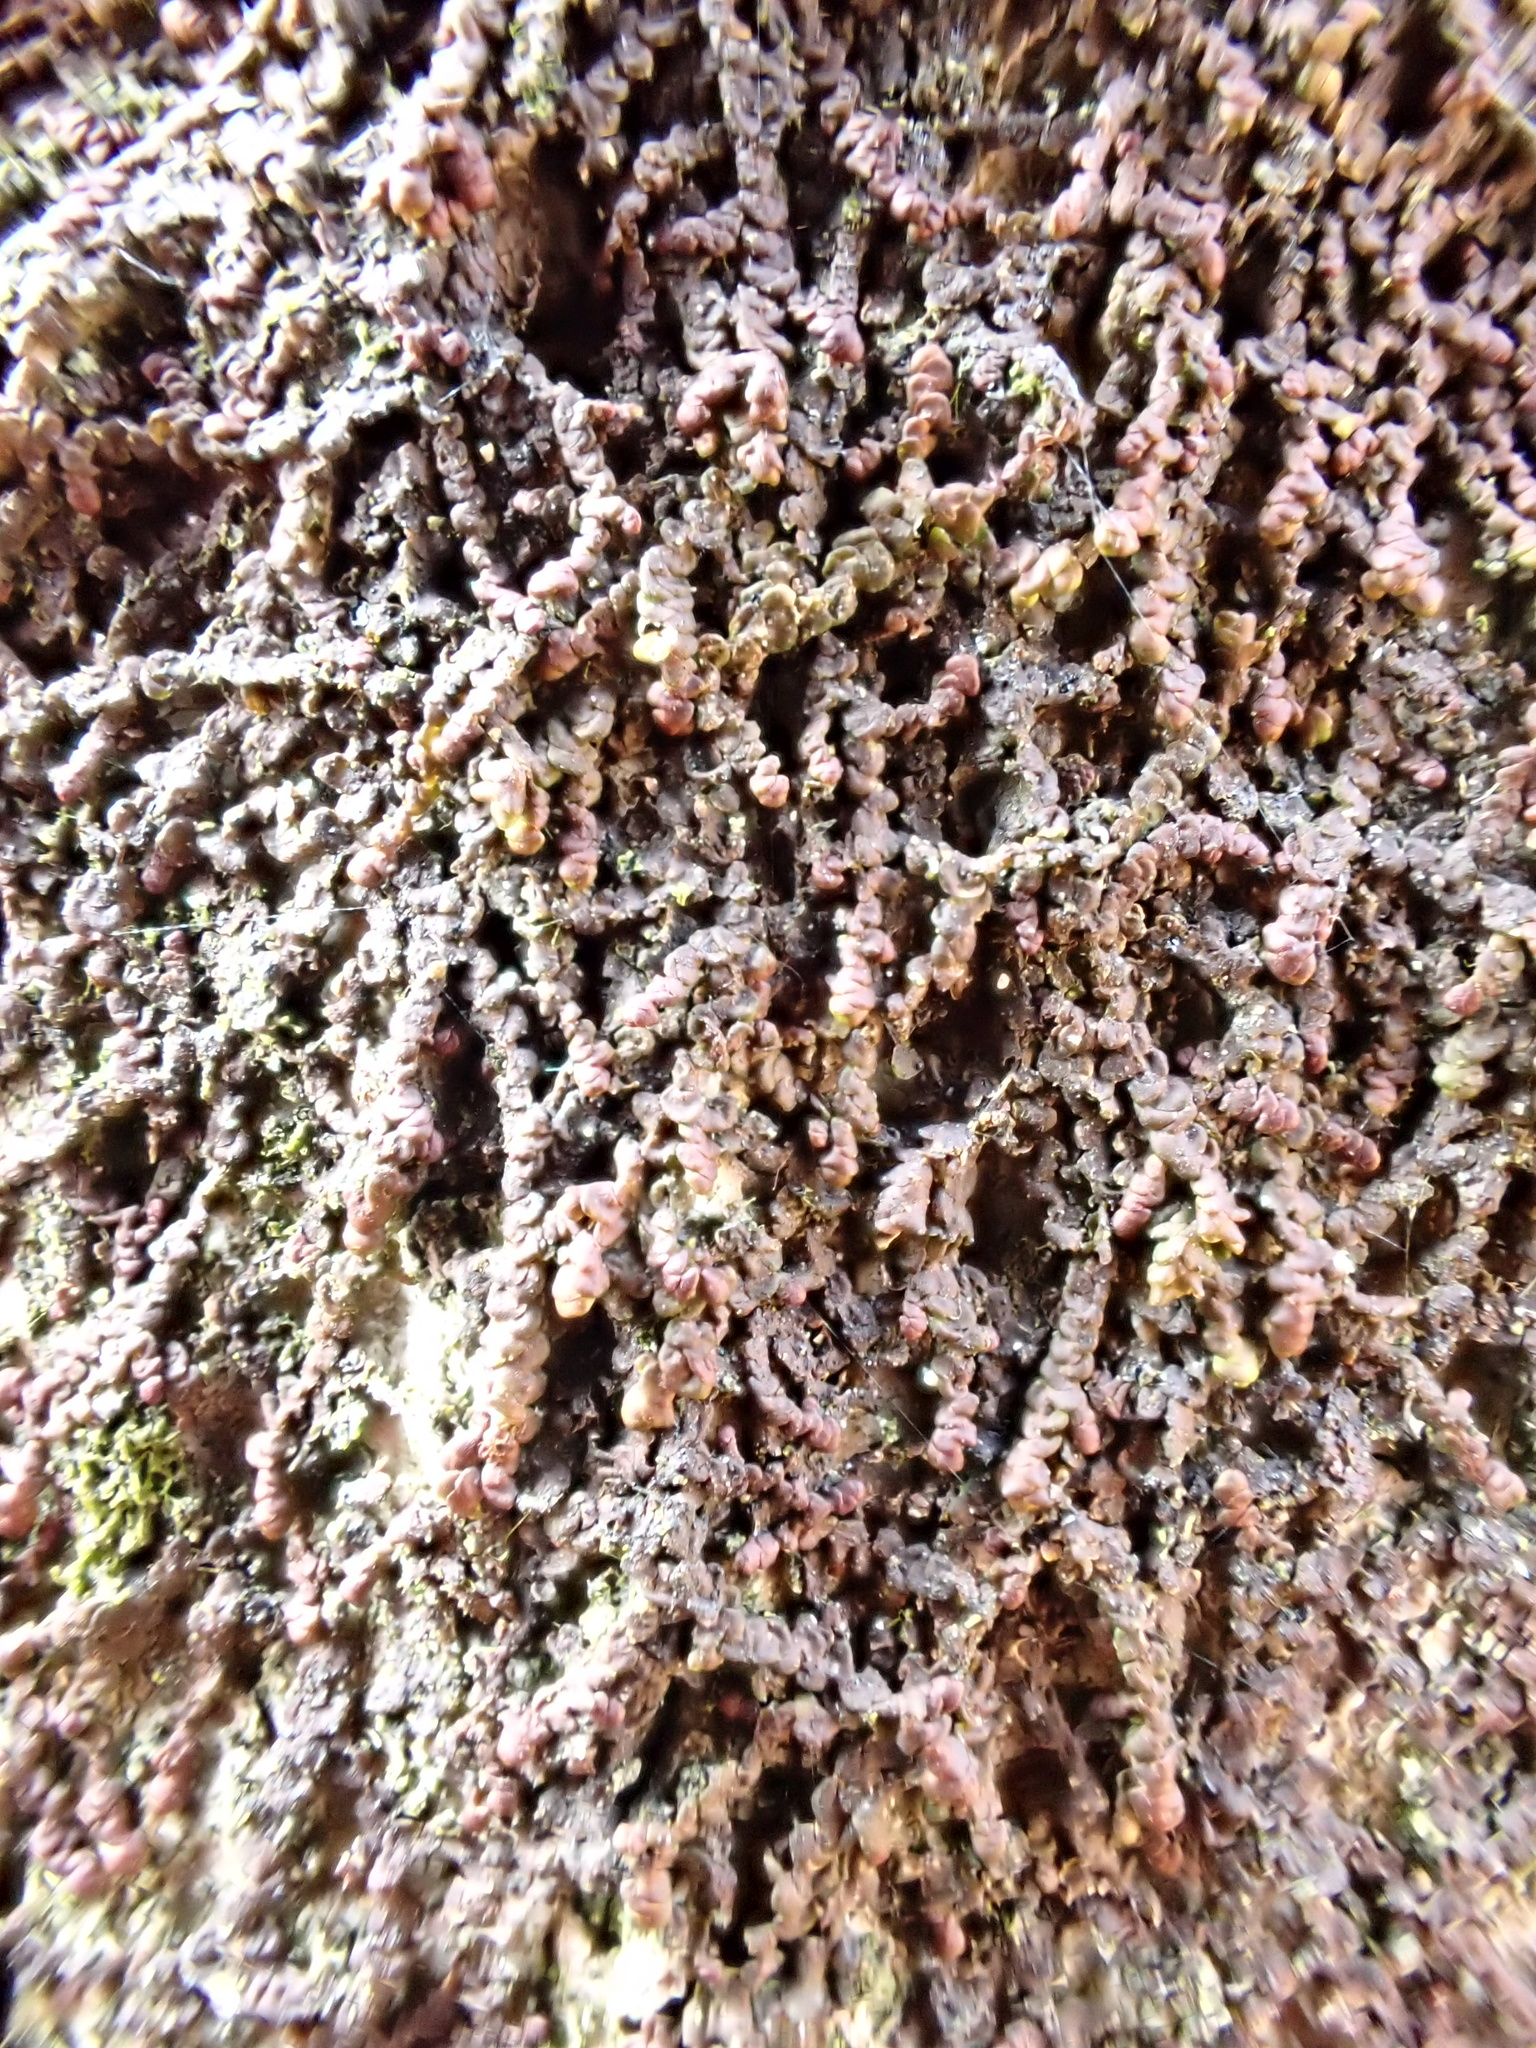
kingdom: Plantae
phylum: Marchantiophyta
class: Jungermanniopsida
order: Porellales
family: Frullaniaceae
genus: Frullania
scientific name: Frullania dilatata
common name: Dilated scalewort
